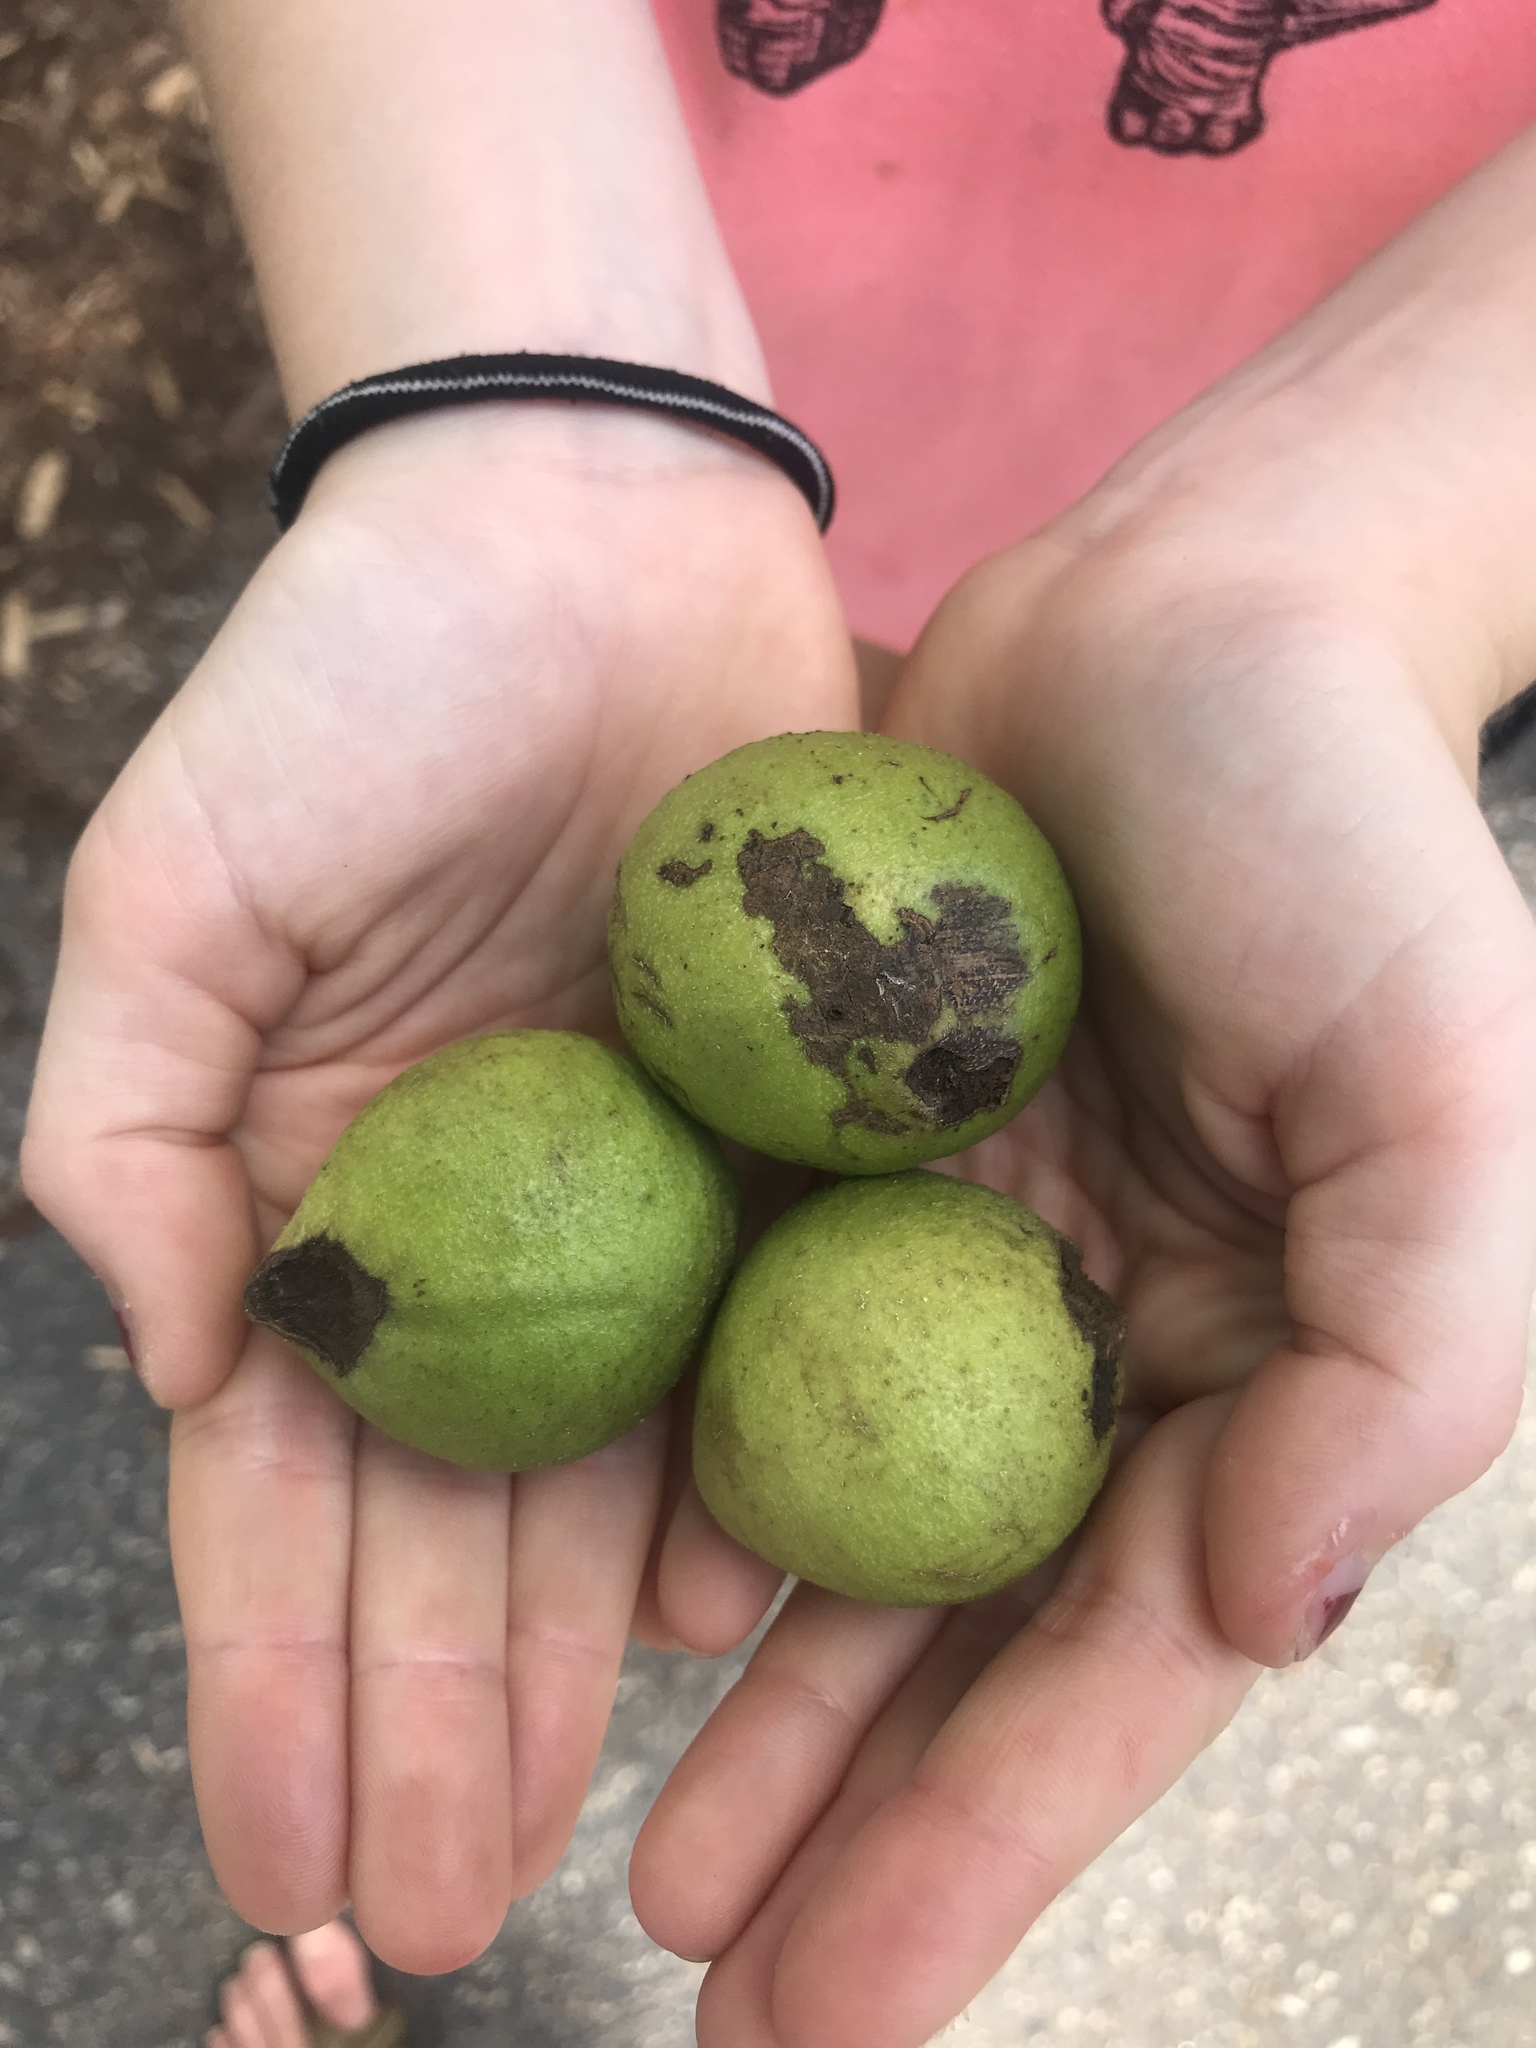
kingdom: Plantae
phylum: Tracheophyta
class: Magnoliopsida
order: Fagales
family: Juglandaceae
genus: Juglans
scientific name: Juglans nigra
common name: Black walnut
